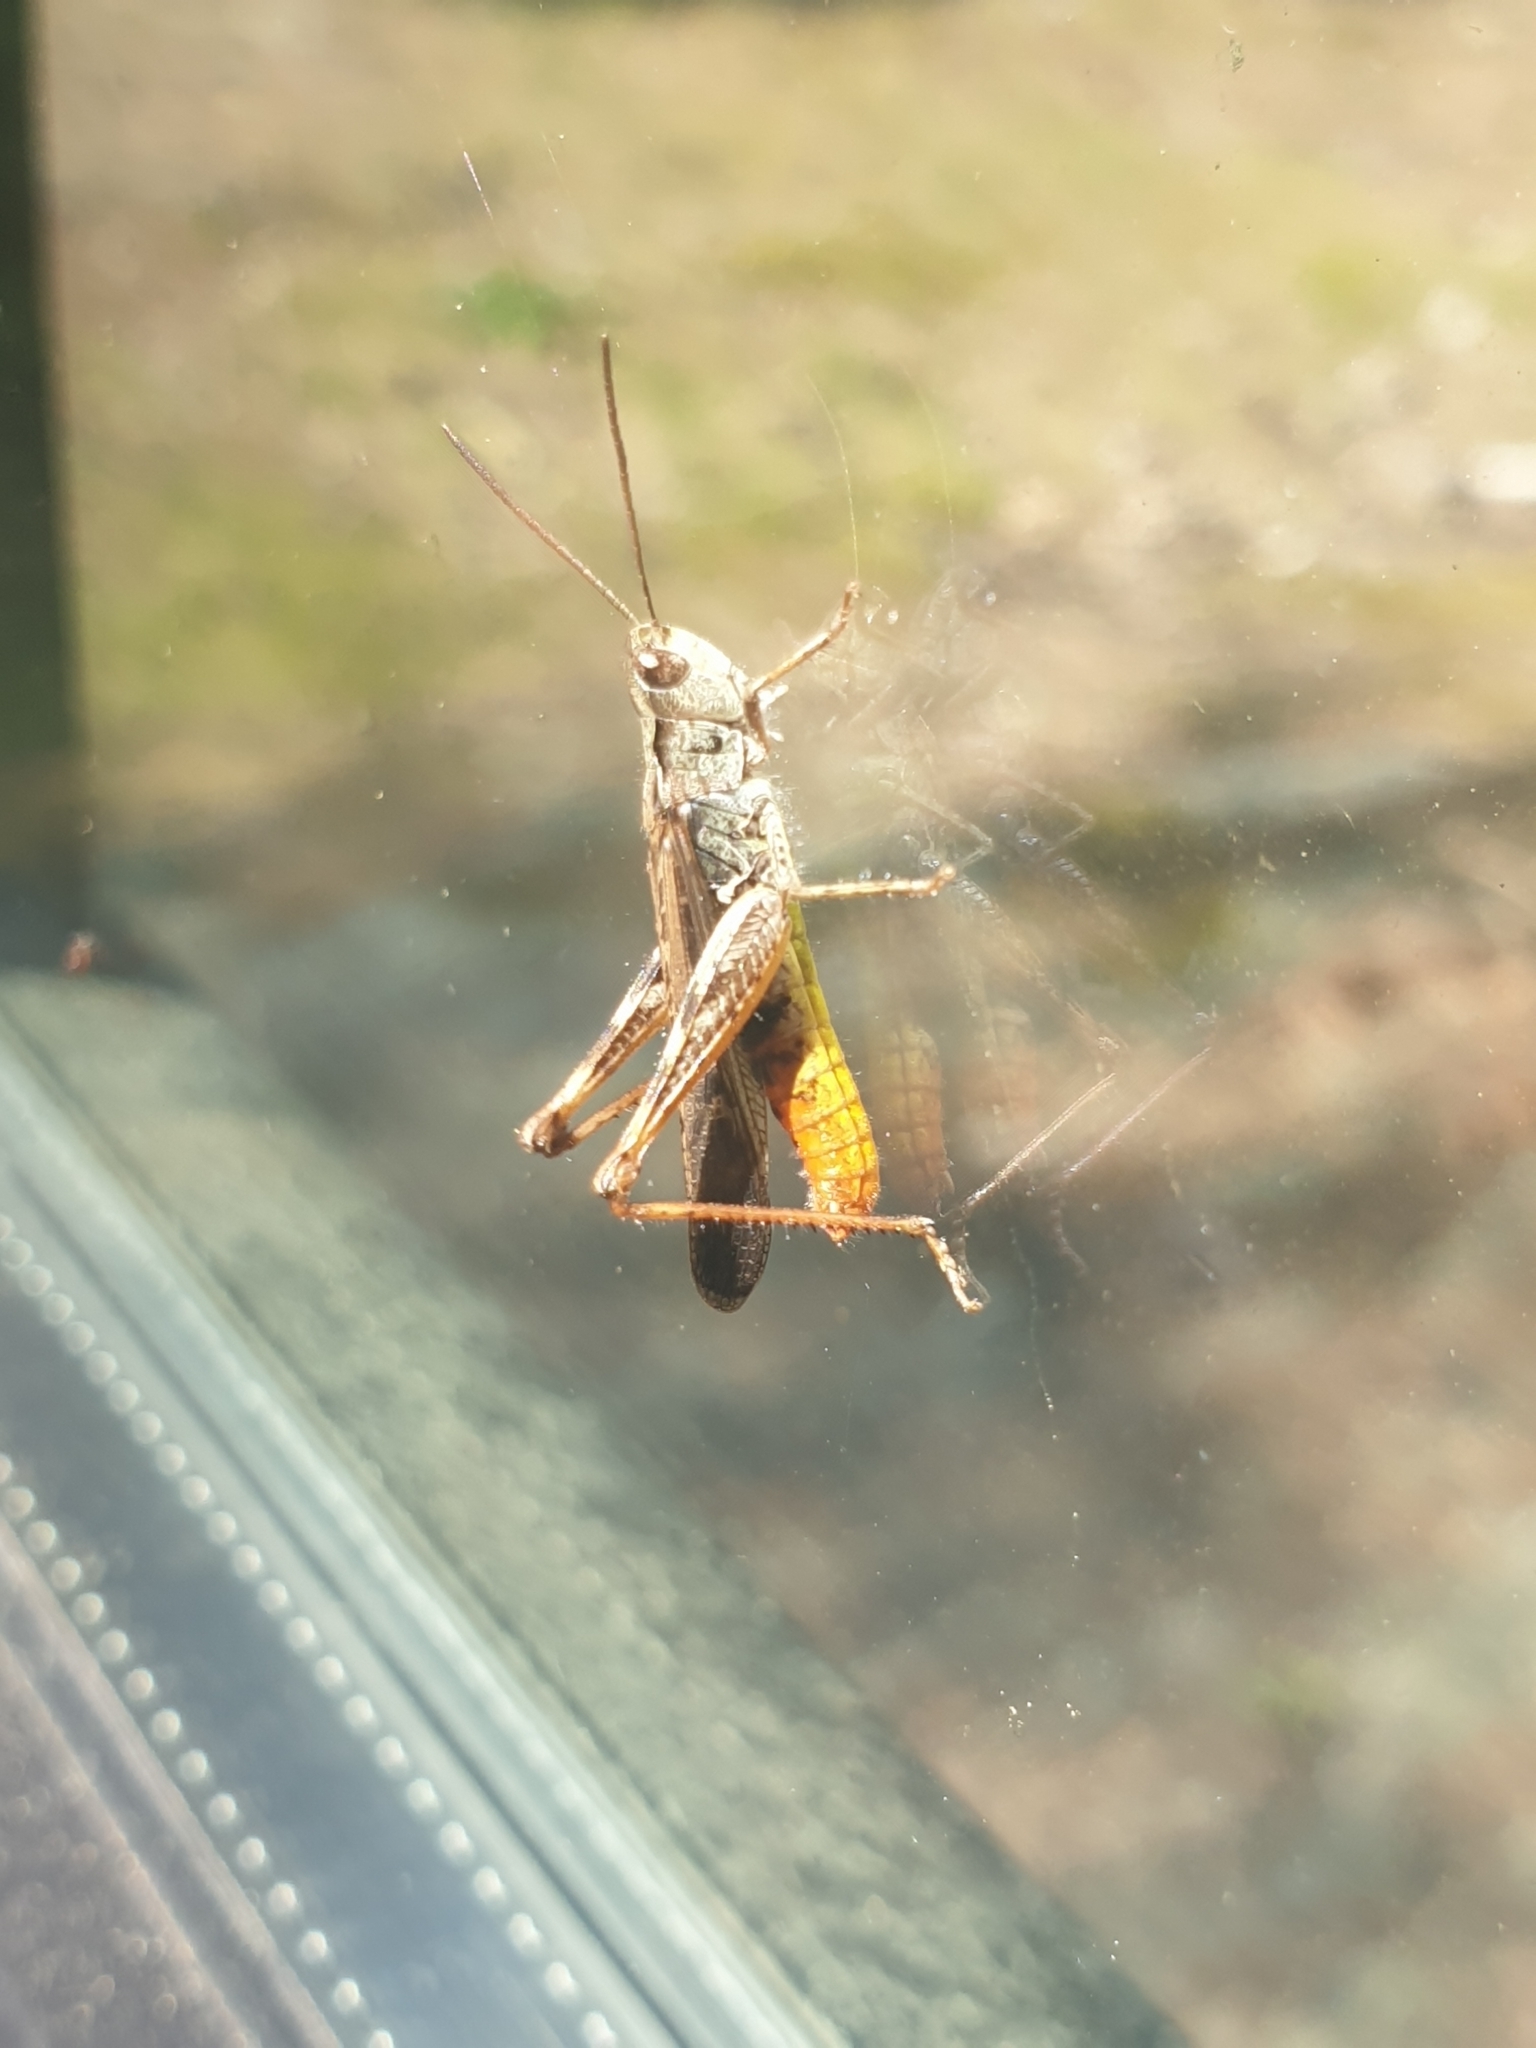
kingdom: Animalia
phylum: Arthropoda
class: Insecta
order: Orthoptera
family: Acrididae
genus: Chorthippus
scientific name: Chorthippus brunneus
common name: Field grasshopper
